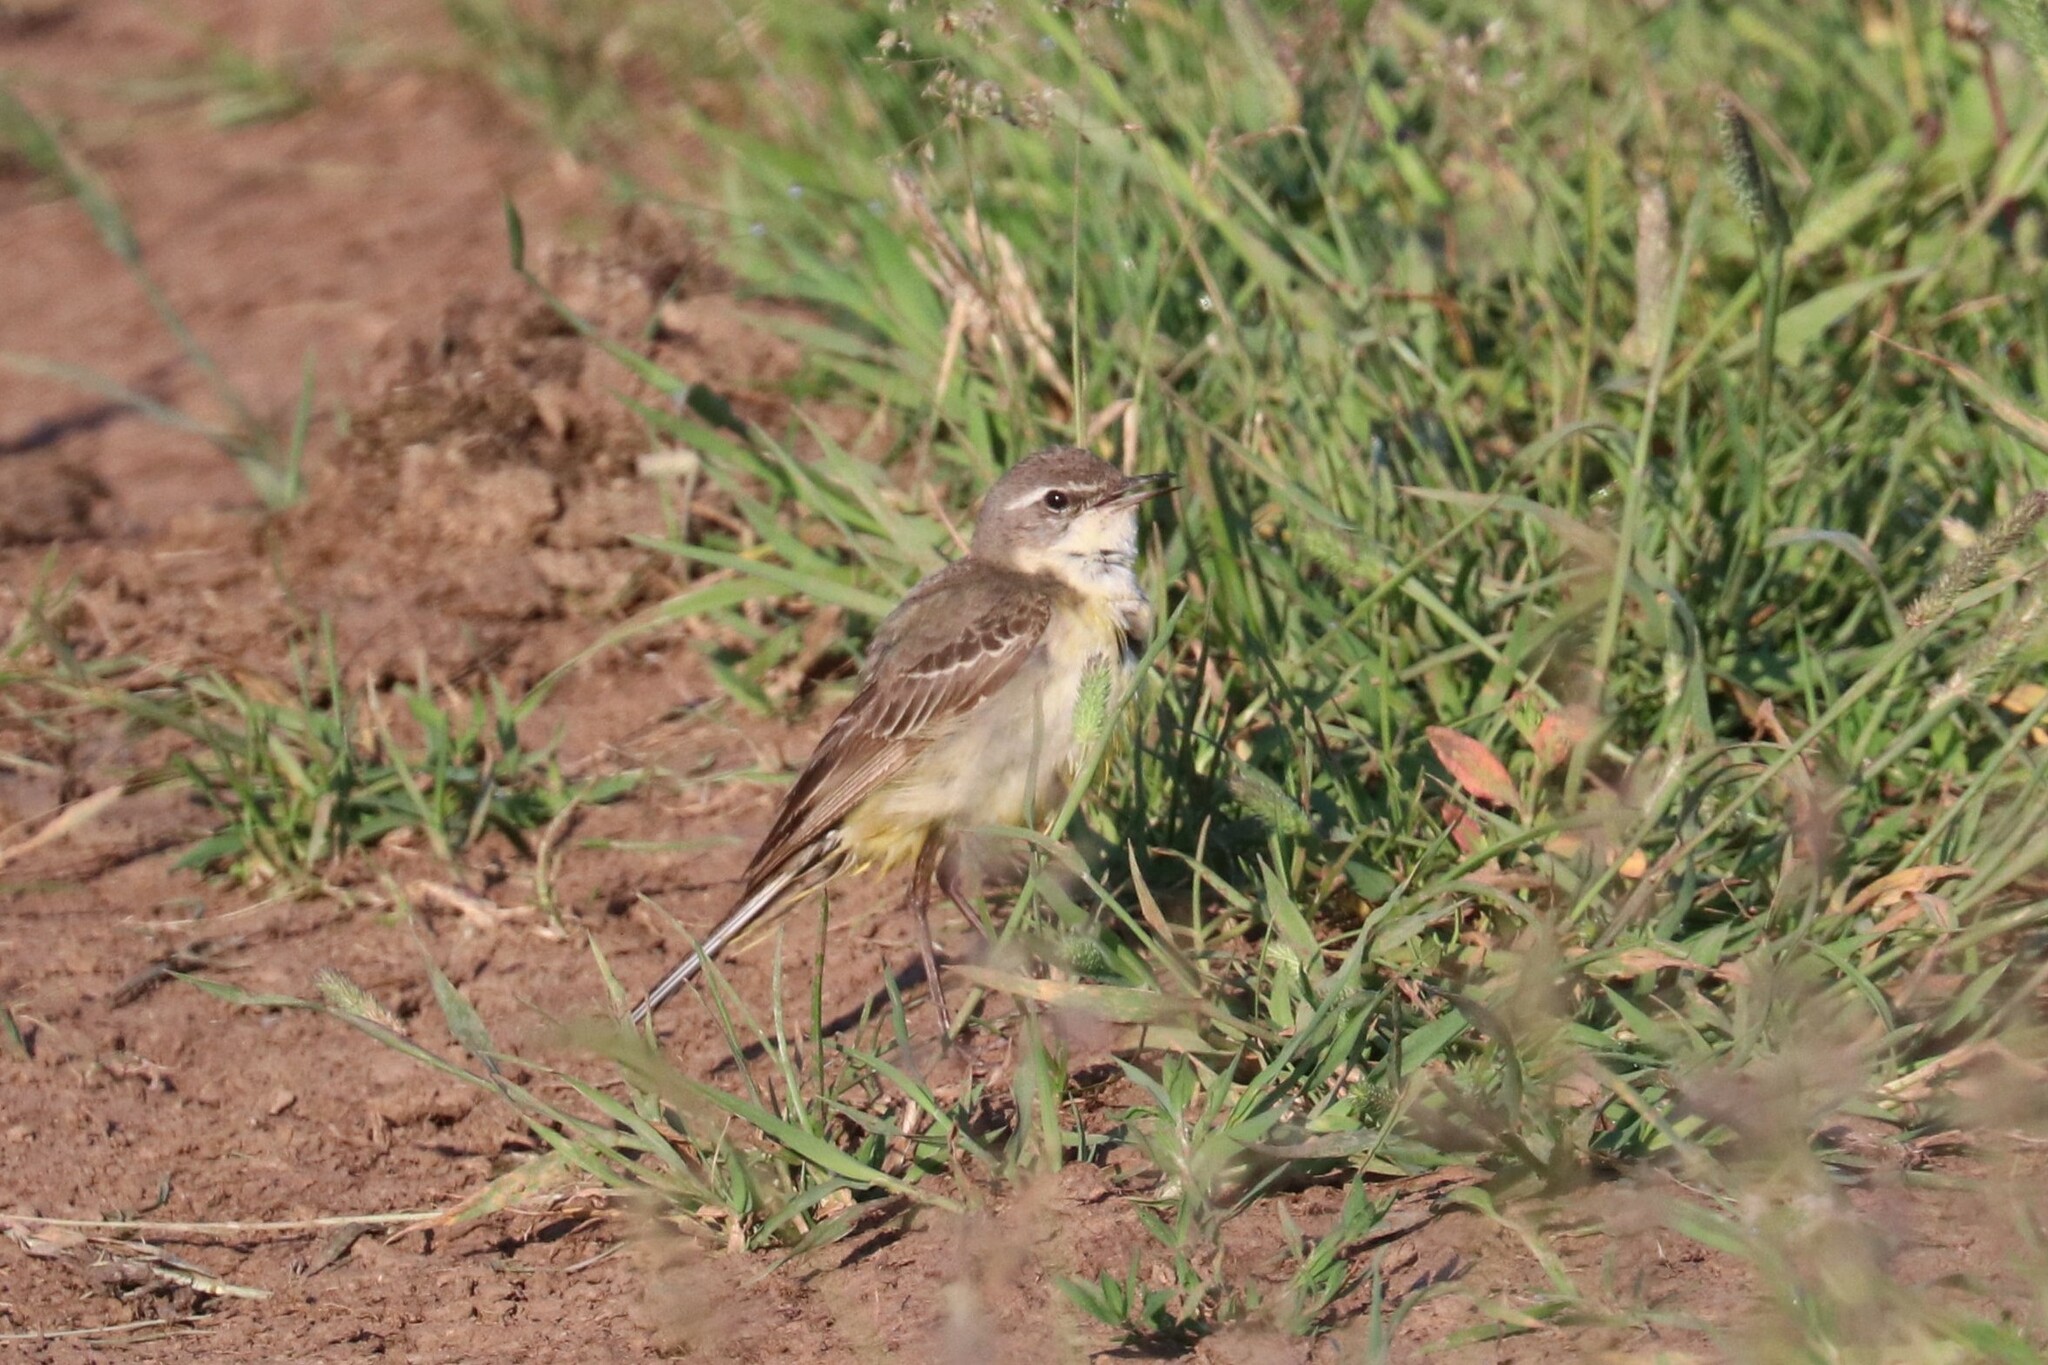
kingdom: Animalia
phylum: Chordata
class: Aves
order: Passeriformes
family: Motacillidae
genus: Motacilla
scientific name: Motacilla flava
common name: Western yellow wagtail
